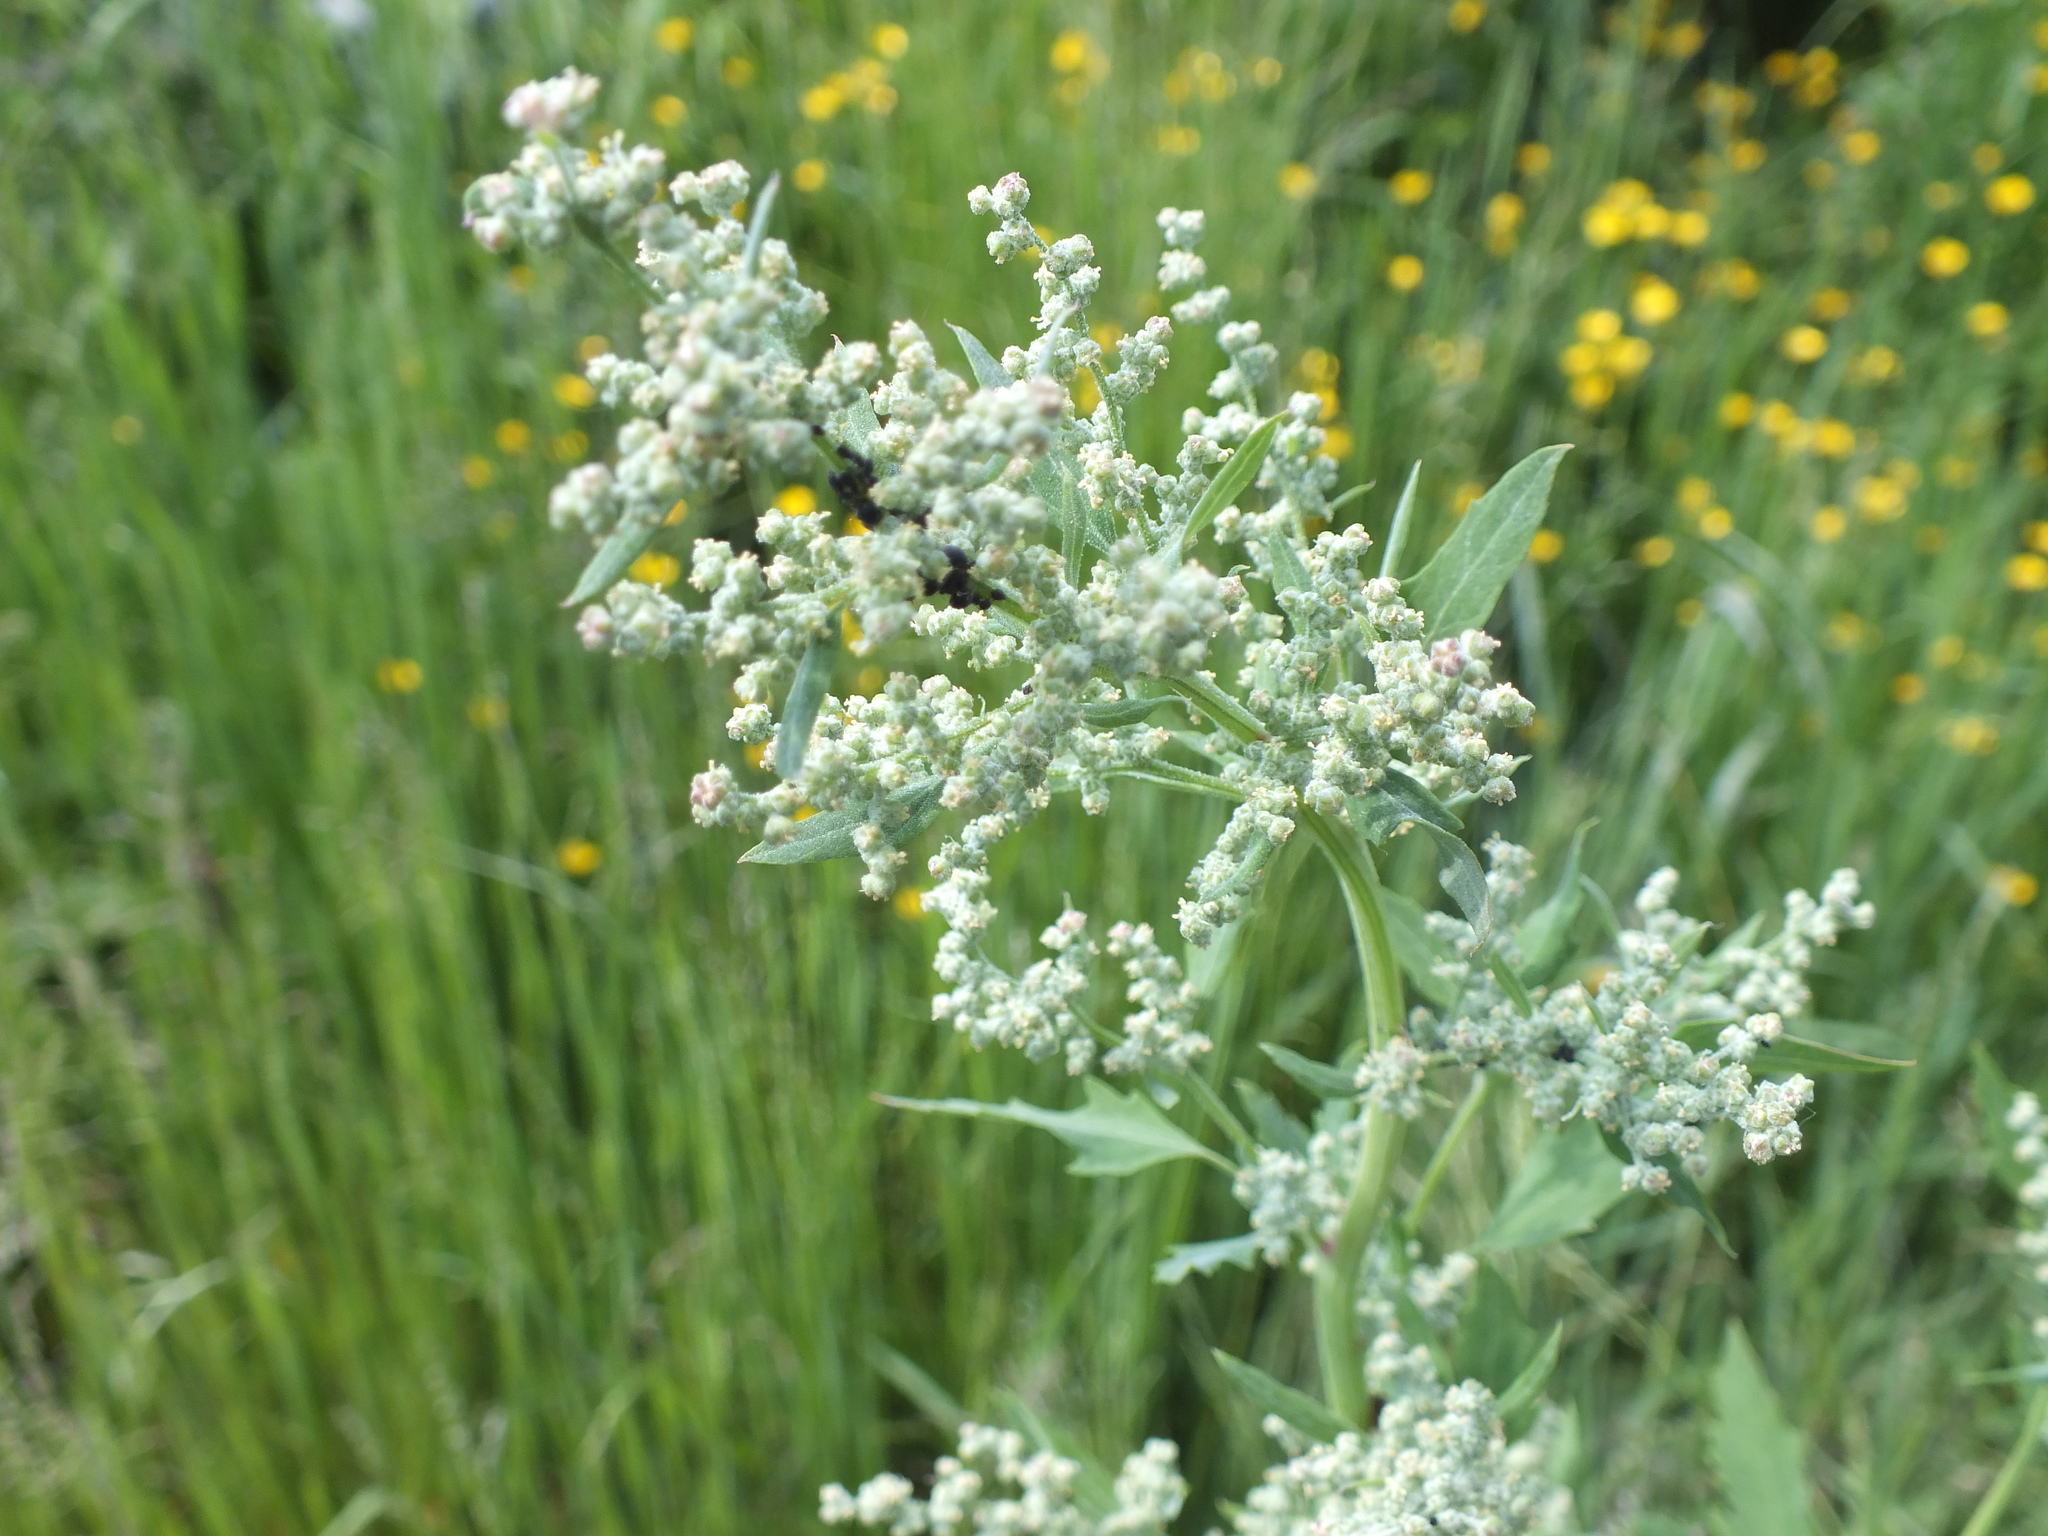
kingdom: Plantae
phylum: Tracheophyta
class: Magnoliopsida
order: Caryophyllales
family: Amaranthaceae
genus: Chenopodium
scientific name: Chenopodium album
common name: Fat-hen
